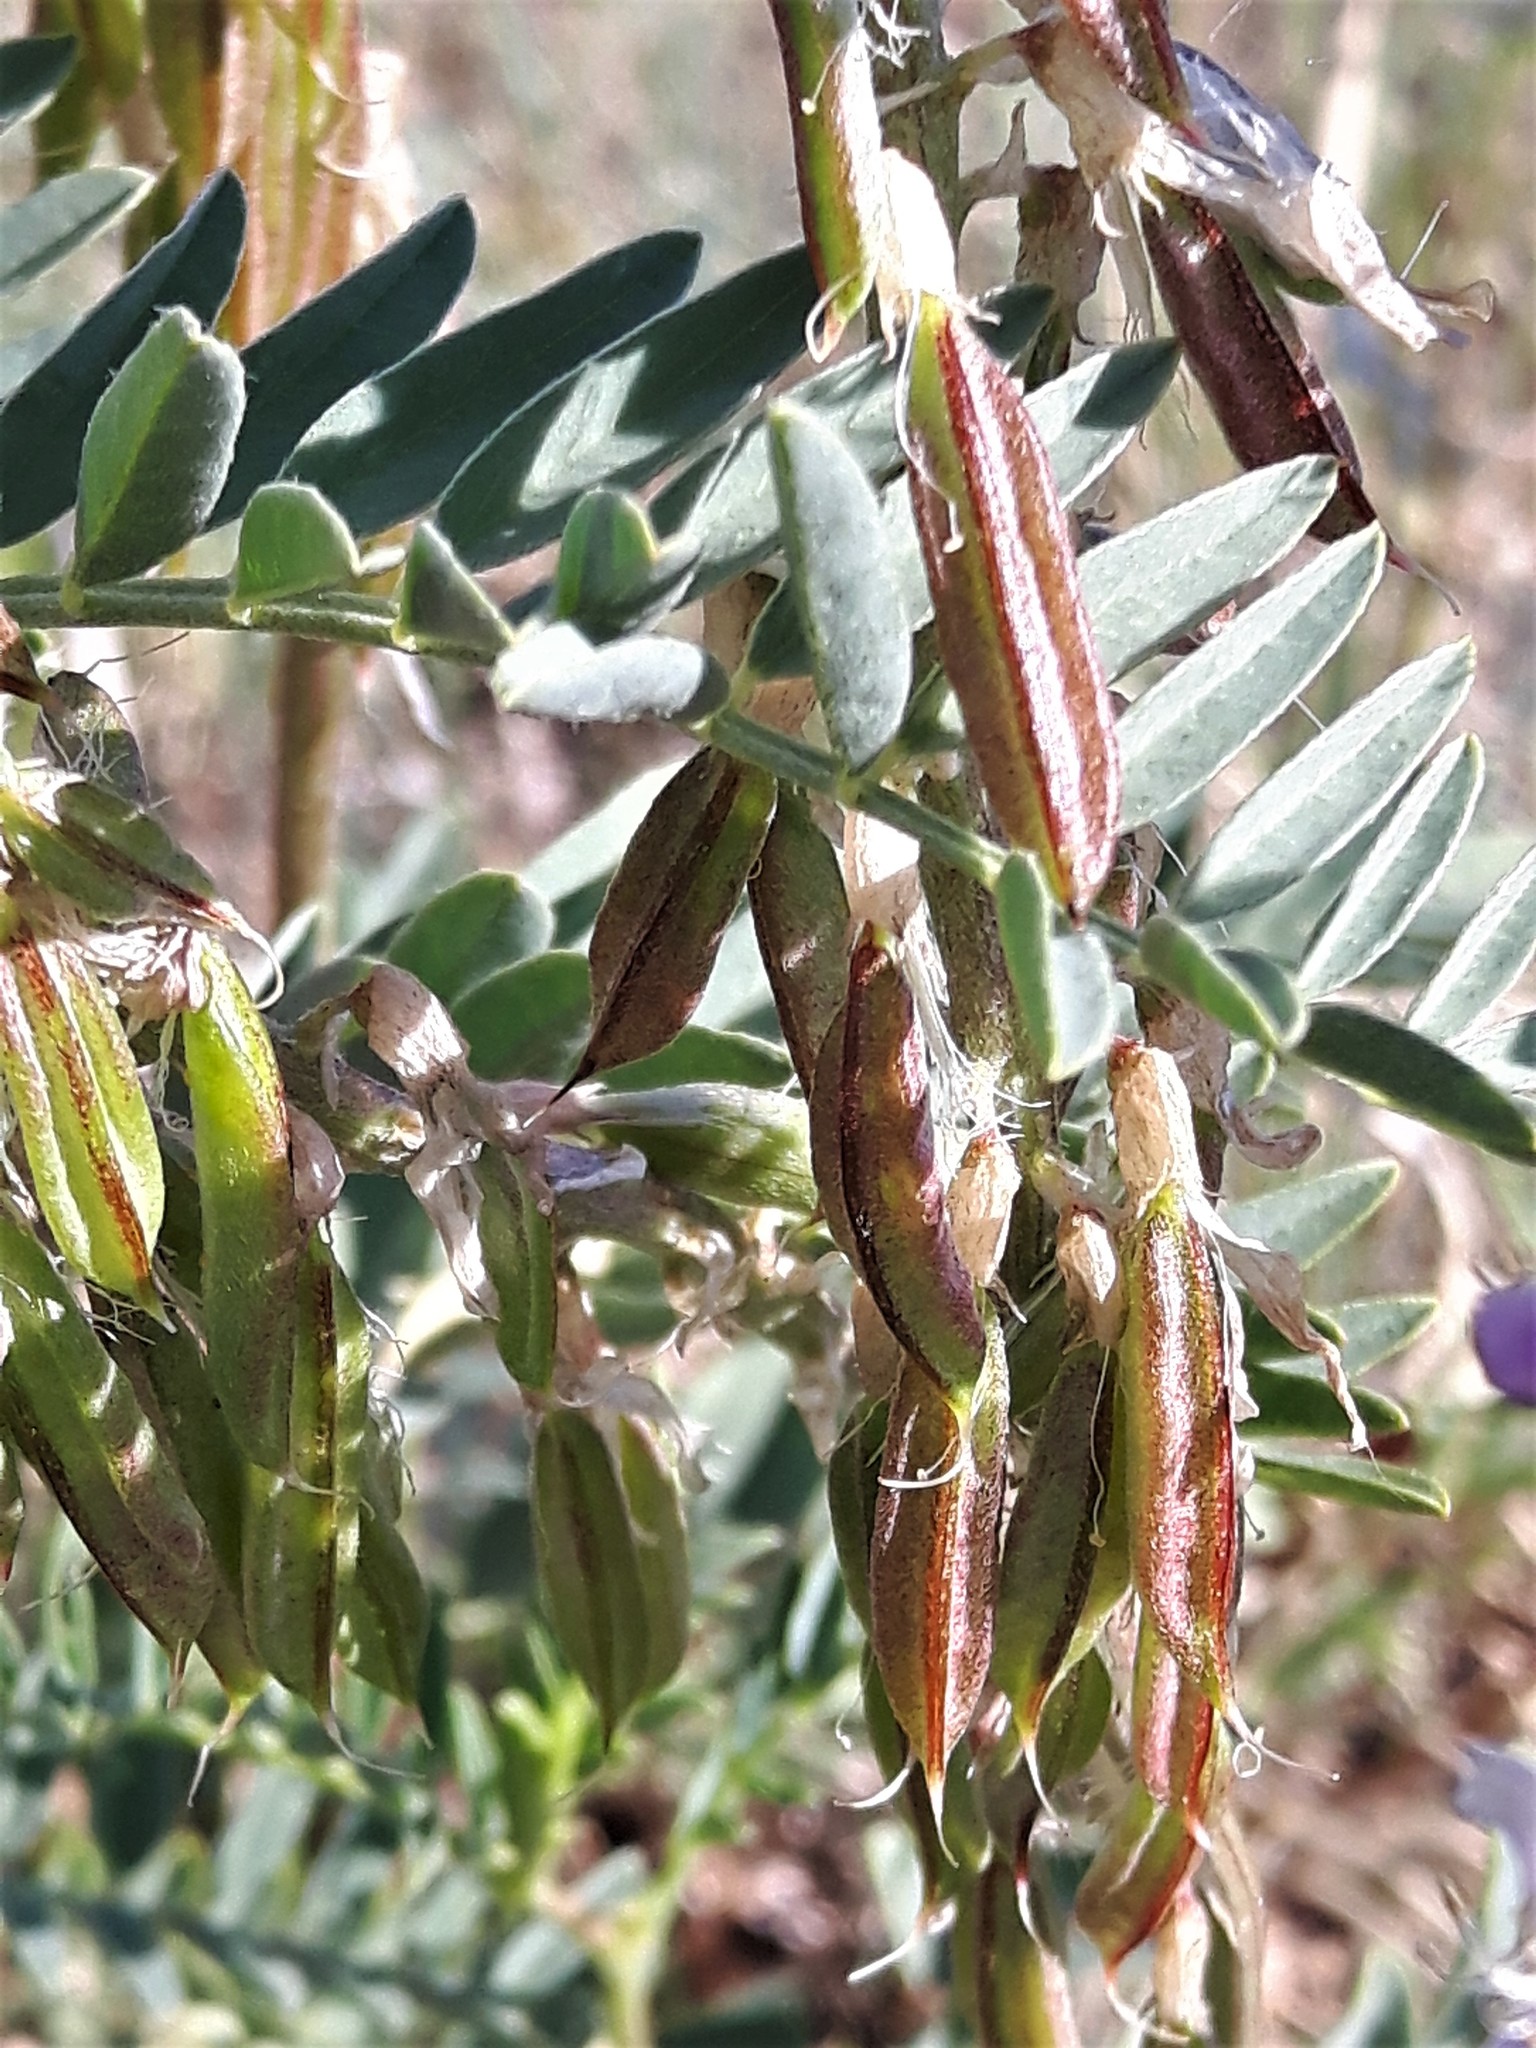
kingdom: Plantae
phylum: Tracheophyta
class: Magnoliopsida
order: Fabales
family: Fabaceae
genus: Astragalus
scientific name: Astragalus bisulcatus
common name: Two-groove milk-vetch
